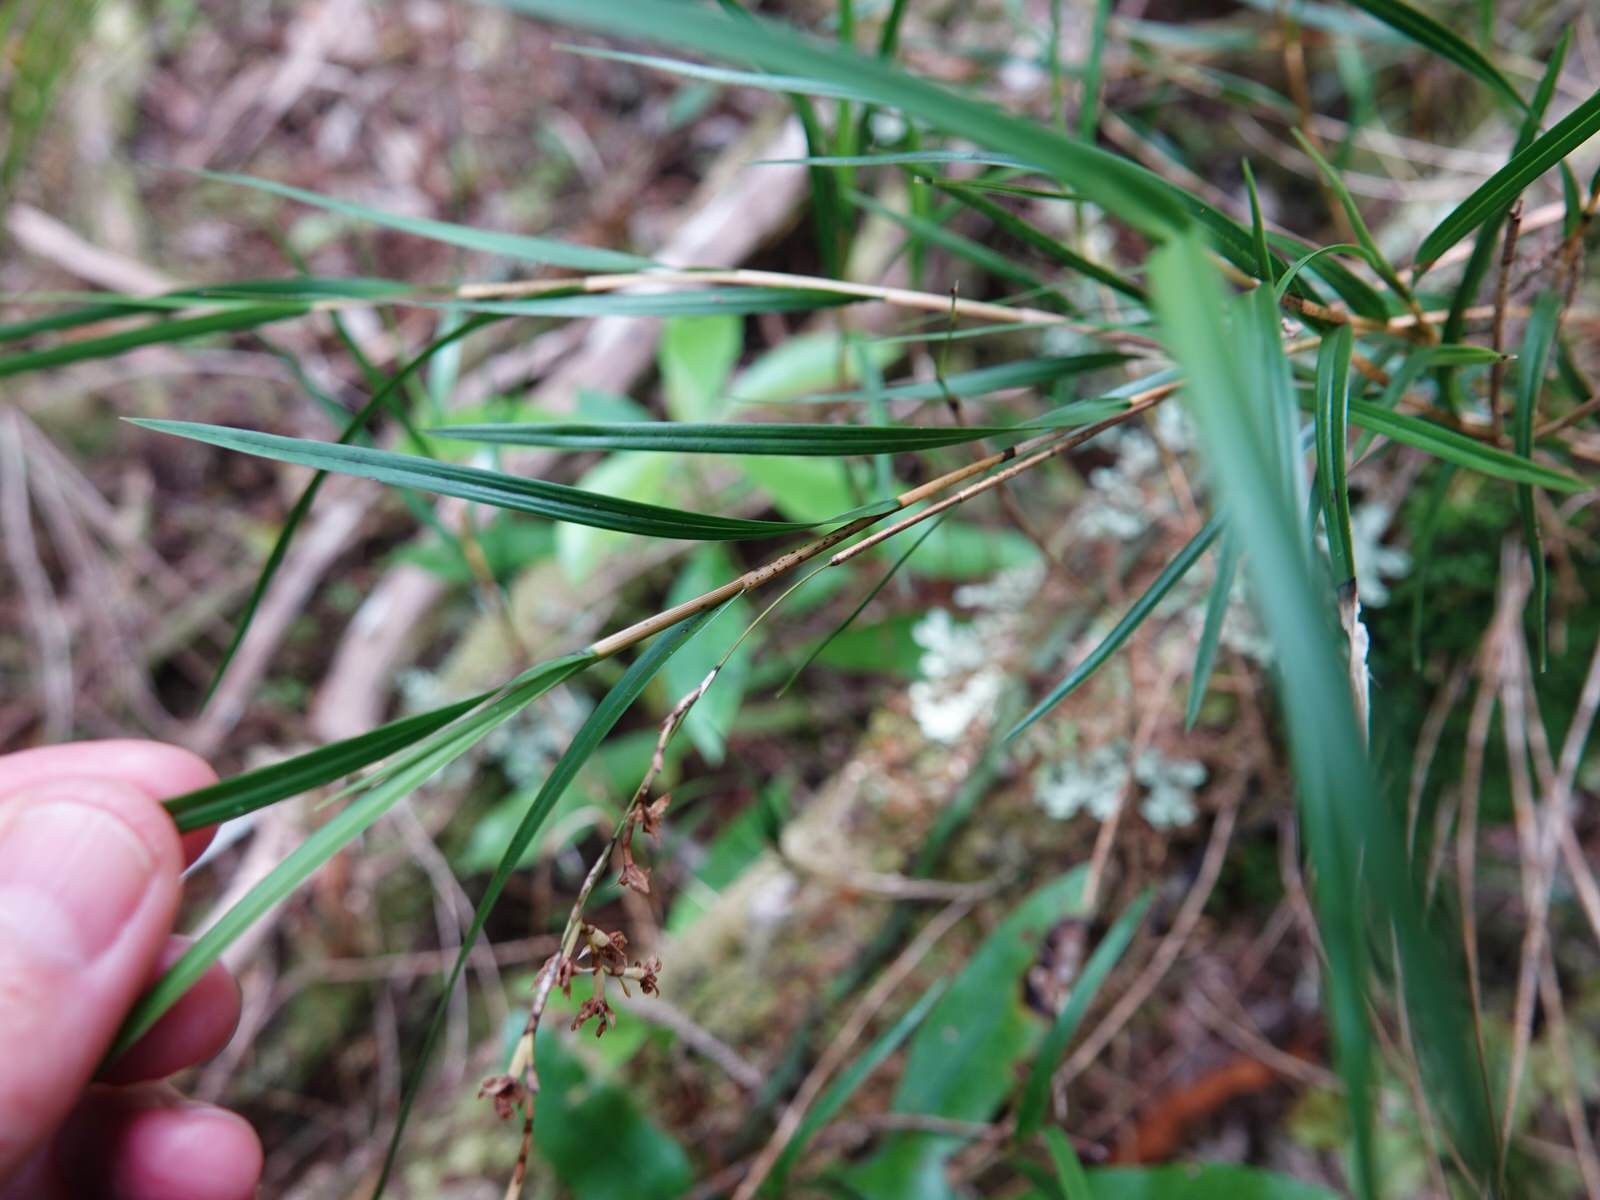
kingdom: Plantae
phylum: Tracheophyta
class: Liliopsida
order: Asparagales
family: Orchidaceae
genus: Earina
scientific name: Earina mucronata
